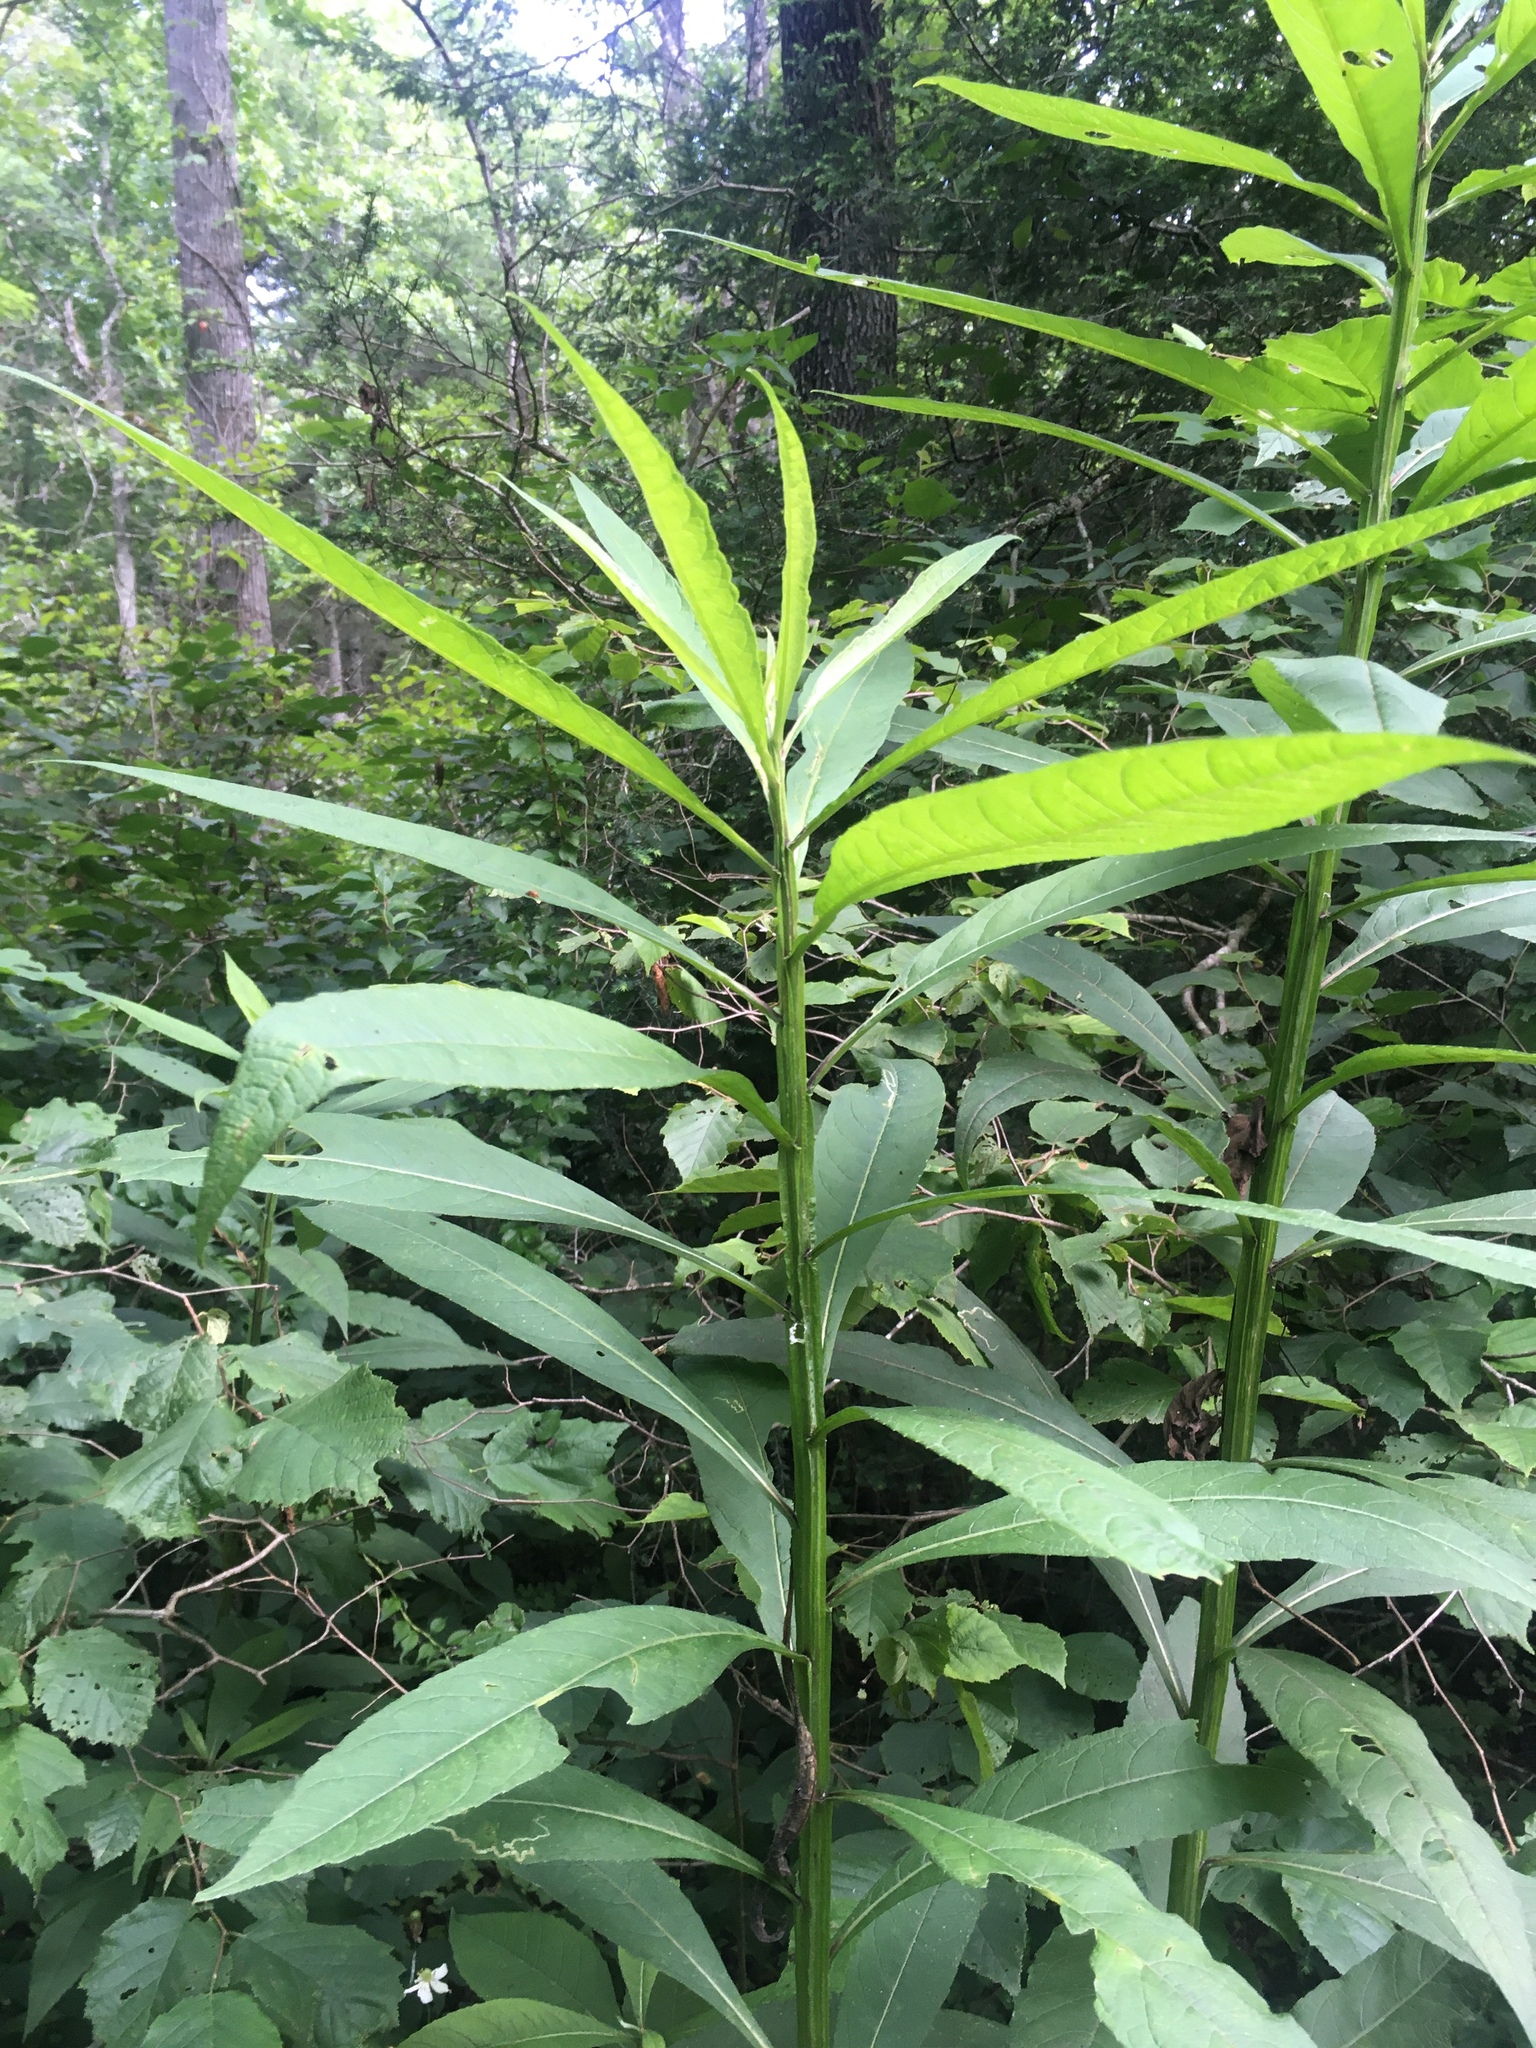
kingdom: Plantae
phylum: Tracheophyta
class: Magnoliopsida
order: Asterales
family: Asteraceae
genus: Verbesina
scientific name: Verbesina alternifolia
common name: Wingstem
